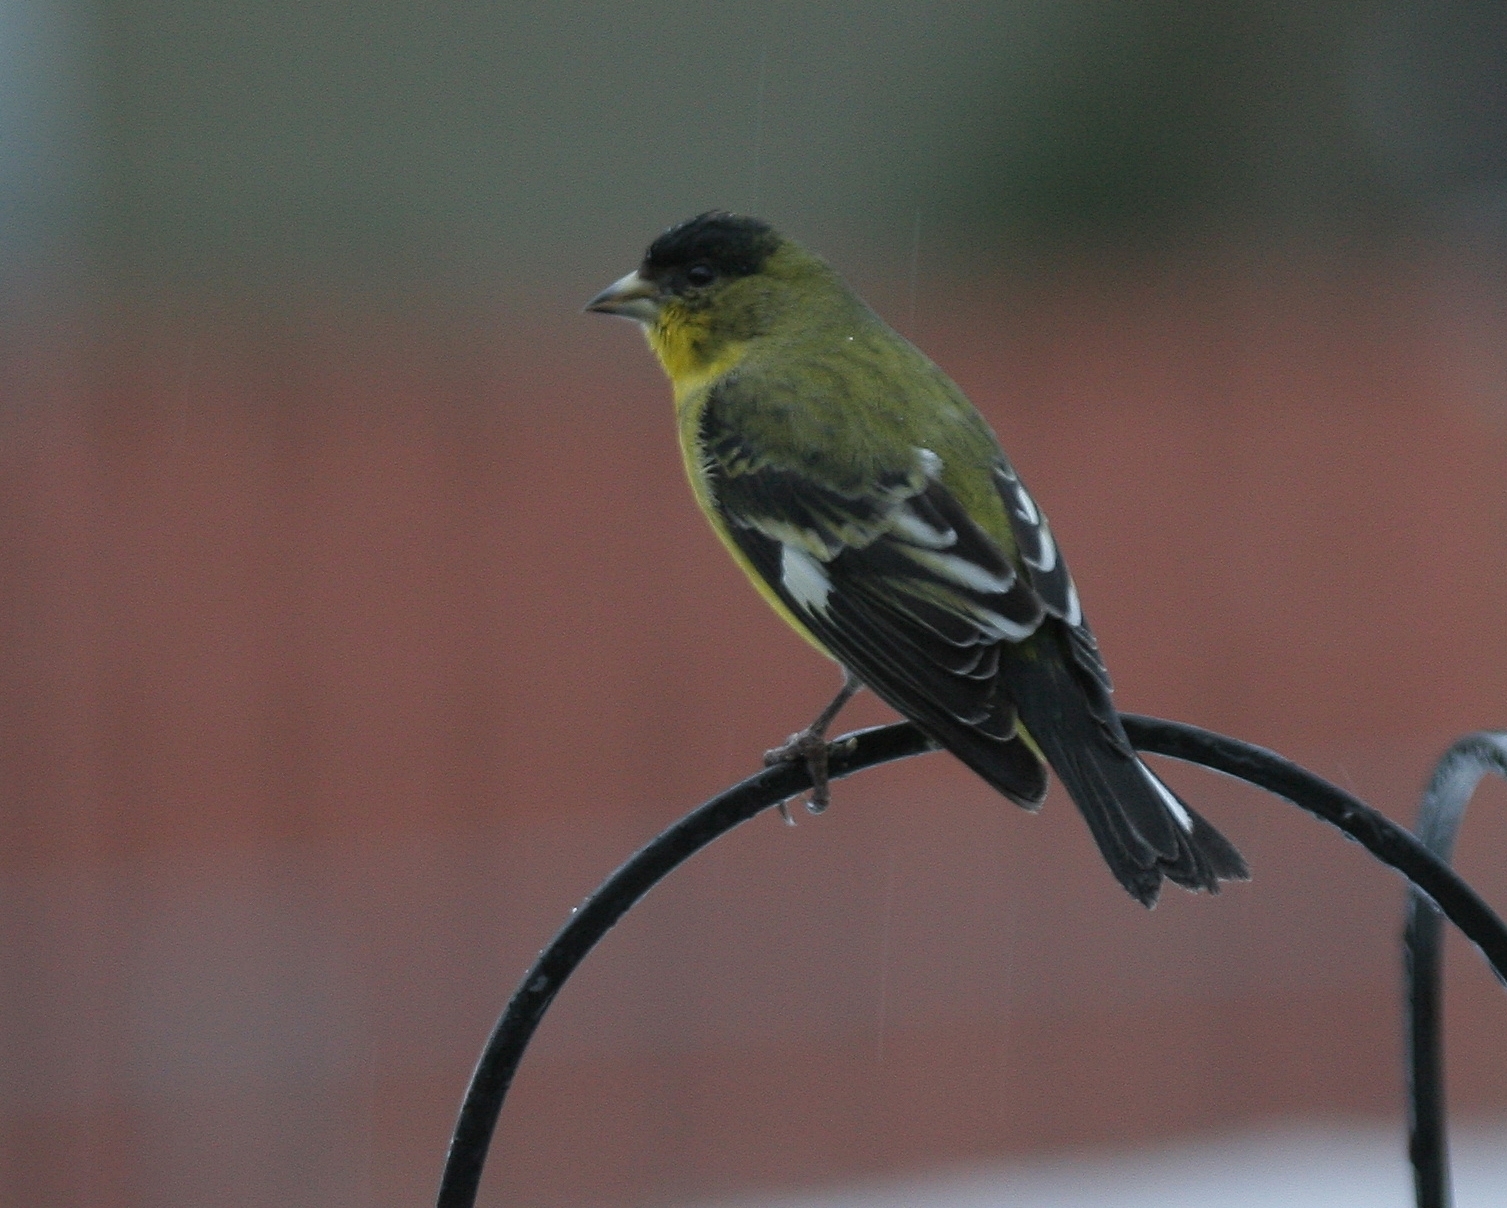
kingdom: Animalia
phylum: Chordata
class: Aves
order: Passeriformes
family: Fringillidae
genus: Spinus
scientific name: Spinus psaltria
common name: Lesser goldfinch
